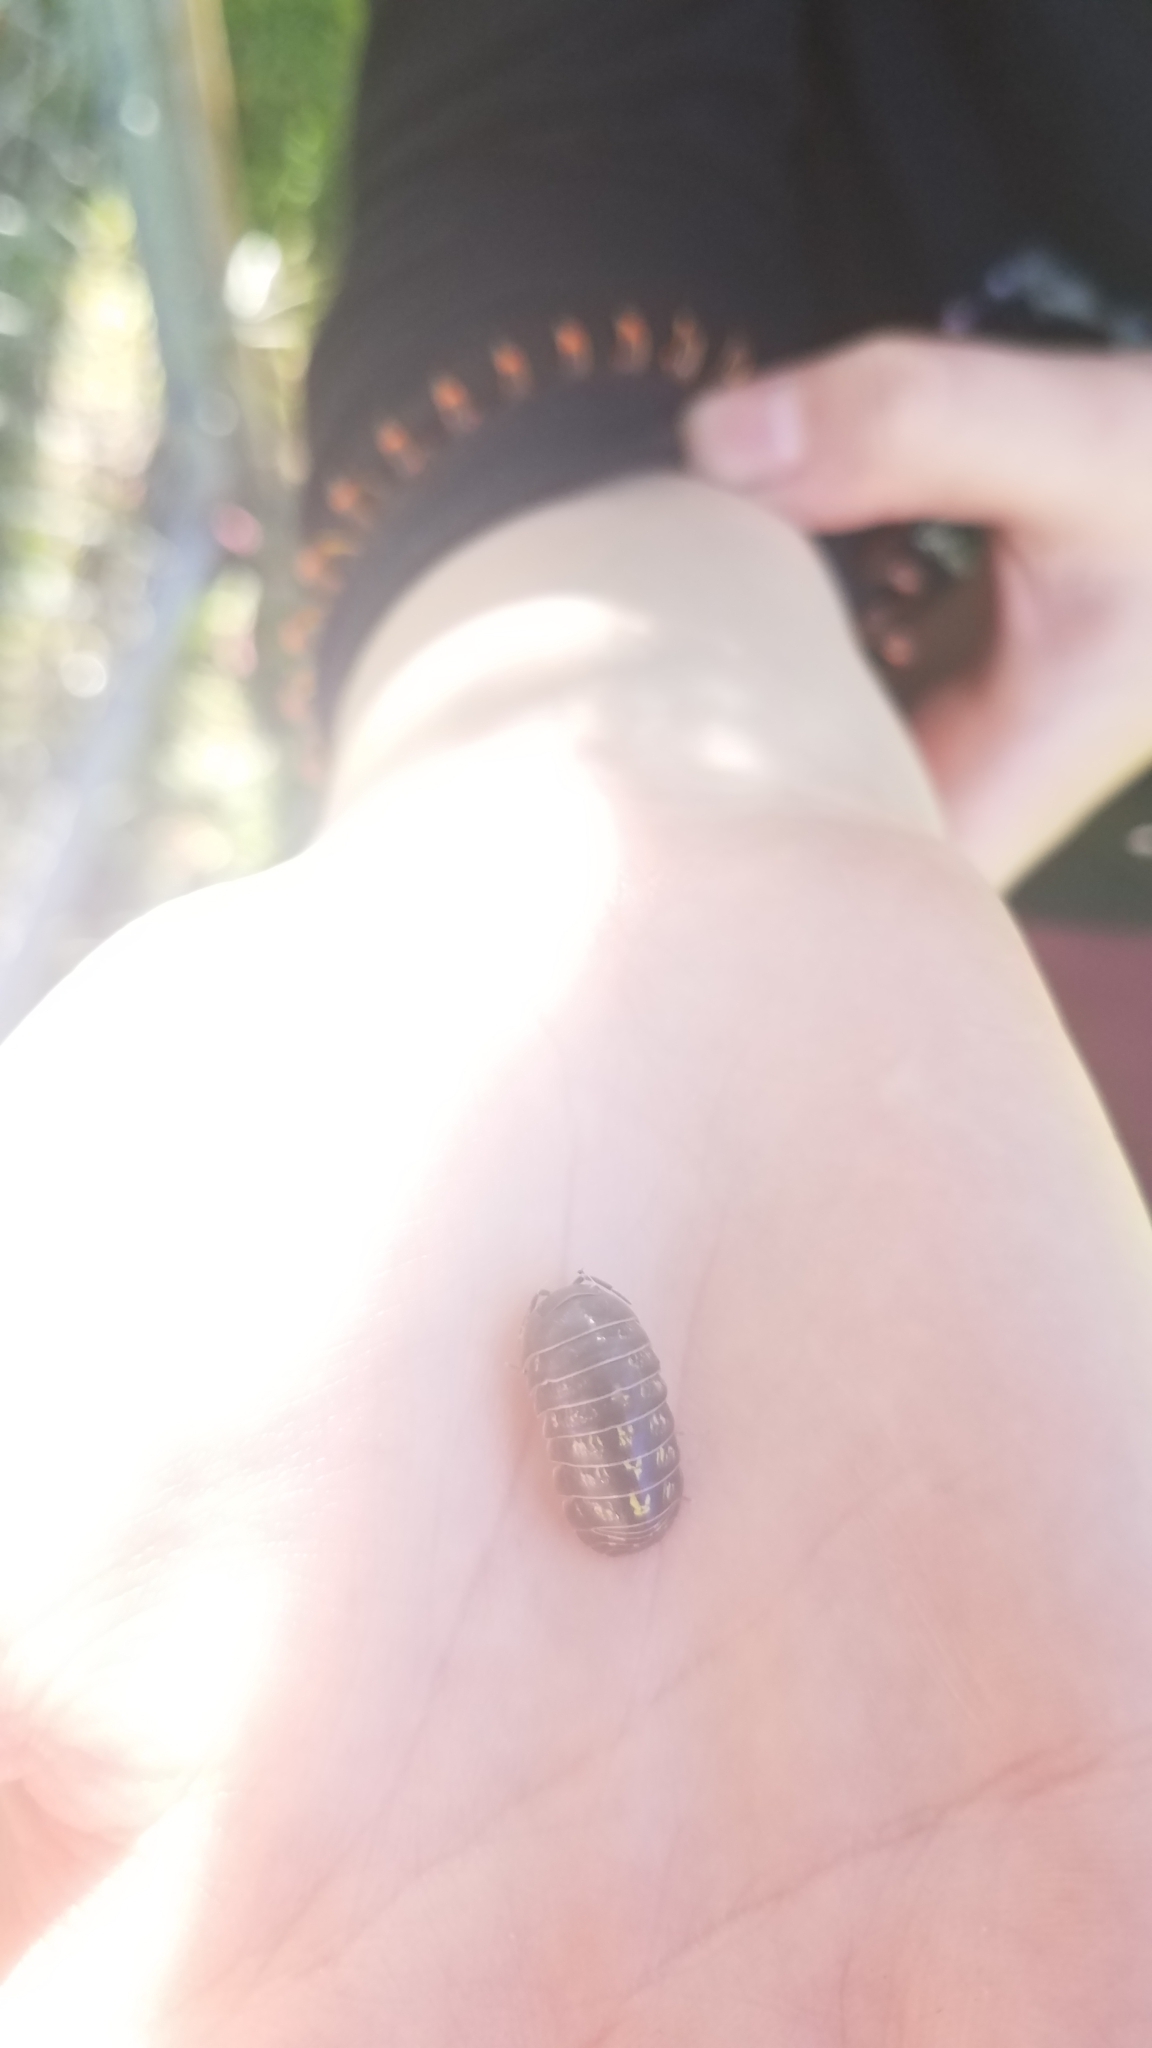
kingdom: Animalia
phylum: Arthropoda
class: Malacostraca
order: Isopoda
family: Armadillidiidae
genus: Armadillidium
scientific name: Armadillidium vulgare
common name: Common pill woodlouse
